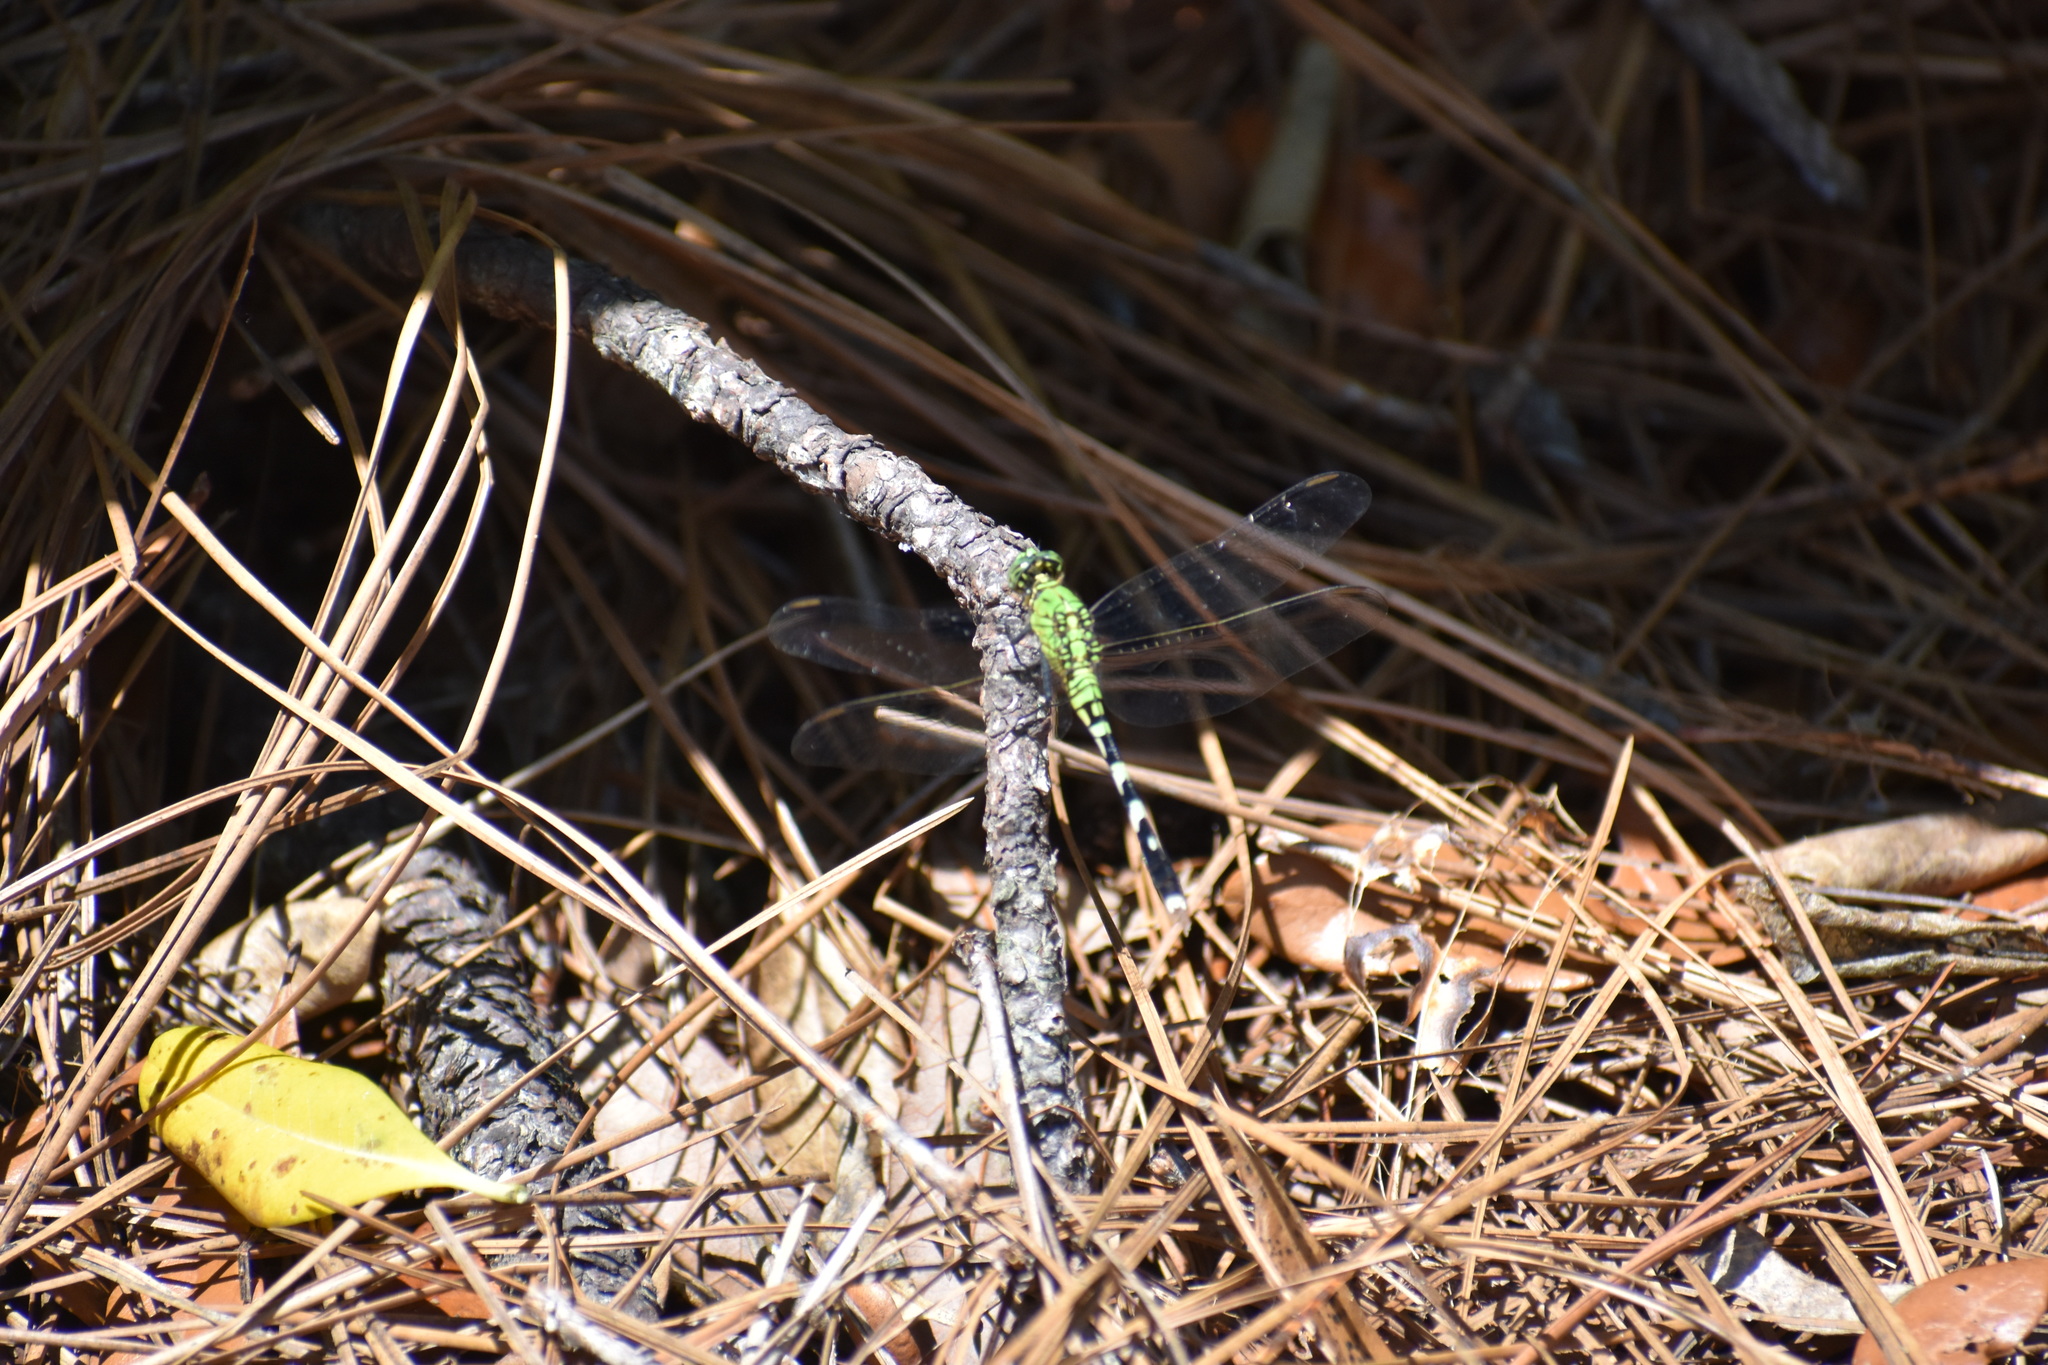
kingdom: Animalia
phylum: Arthropoda
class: Insecta
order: Odonata
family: Libellulidae
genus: Erythemis
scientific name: Erythemis simplicicollis
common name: Eastern pondhawk
